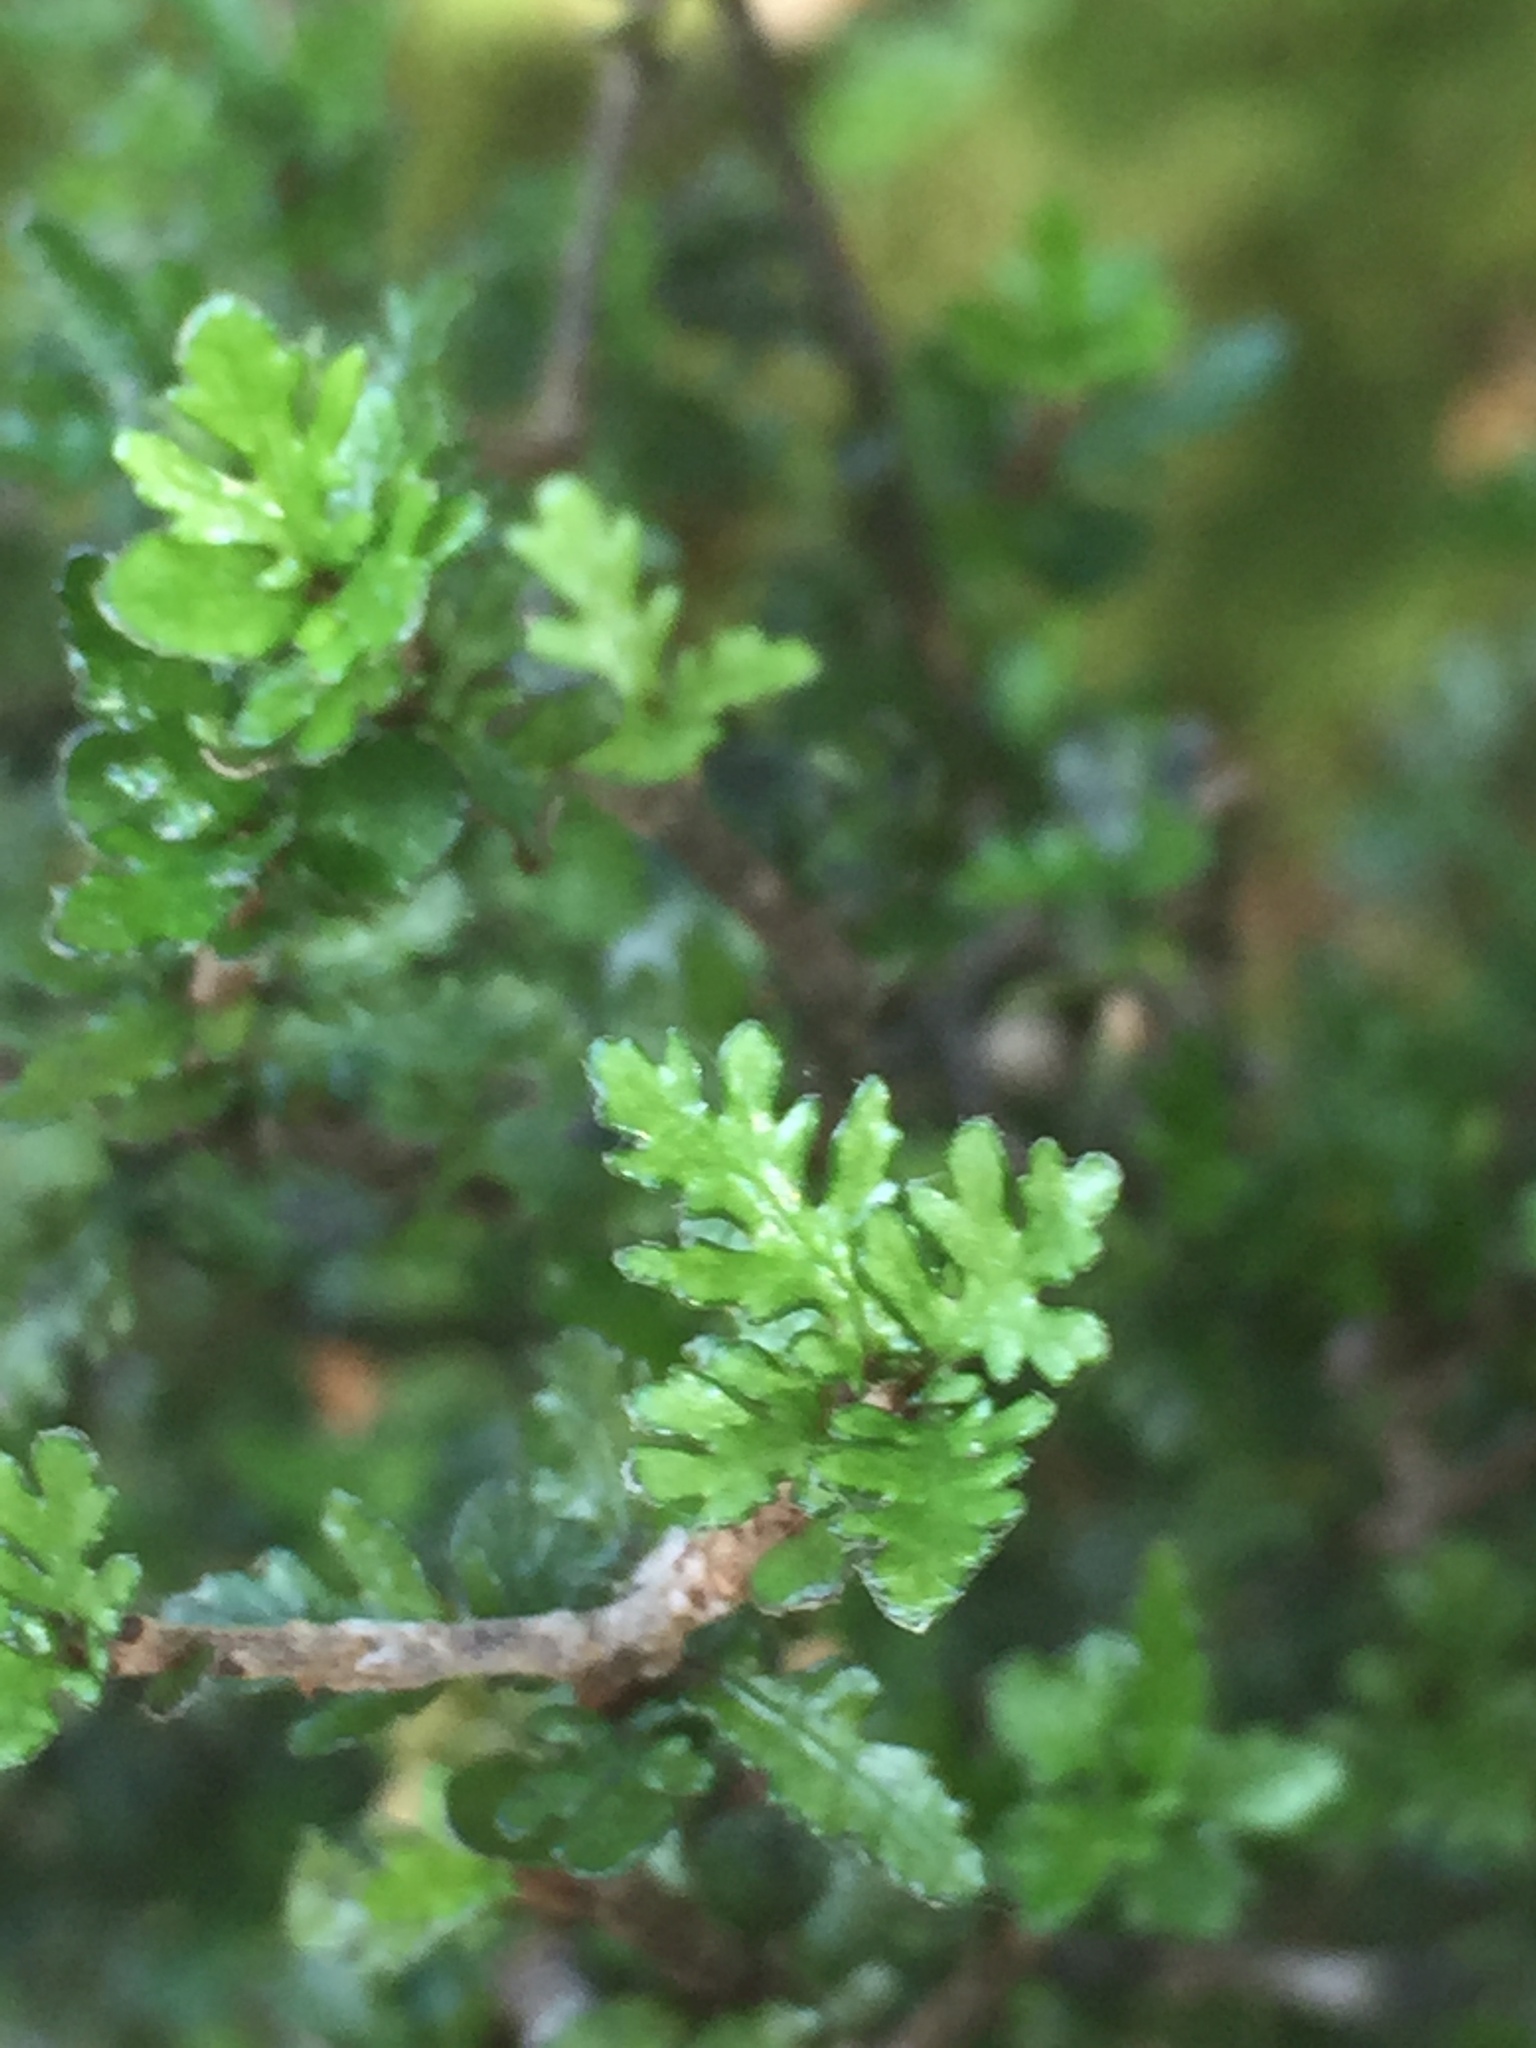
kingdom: Plantae
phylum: Tracheophyta
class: Magnoliopsida
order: Apiales
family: Pittosporaceae
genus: Pittosporum
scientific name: Pittosporum rigidum
